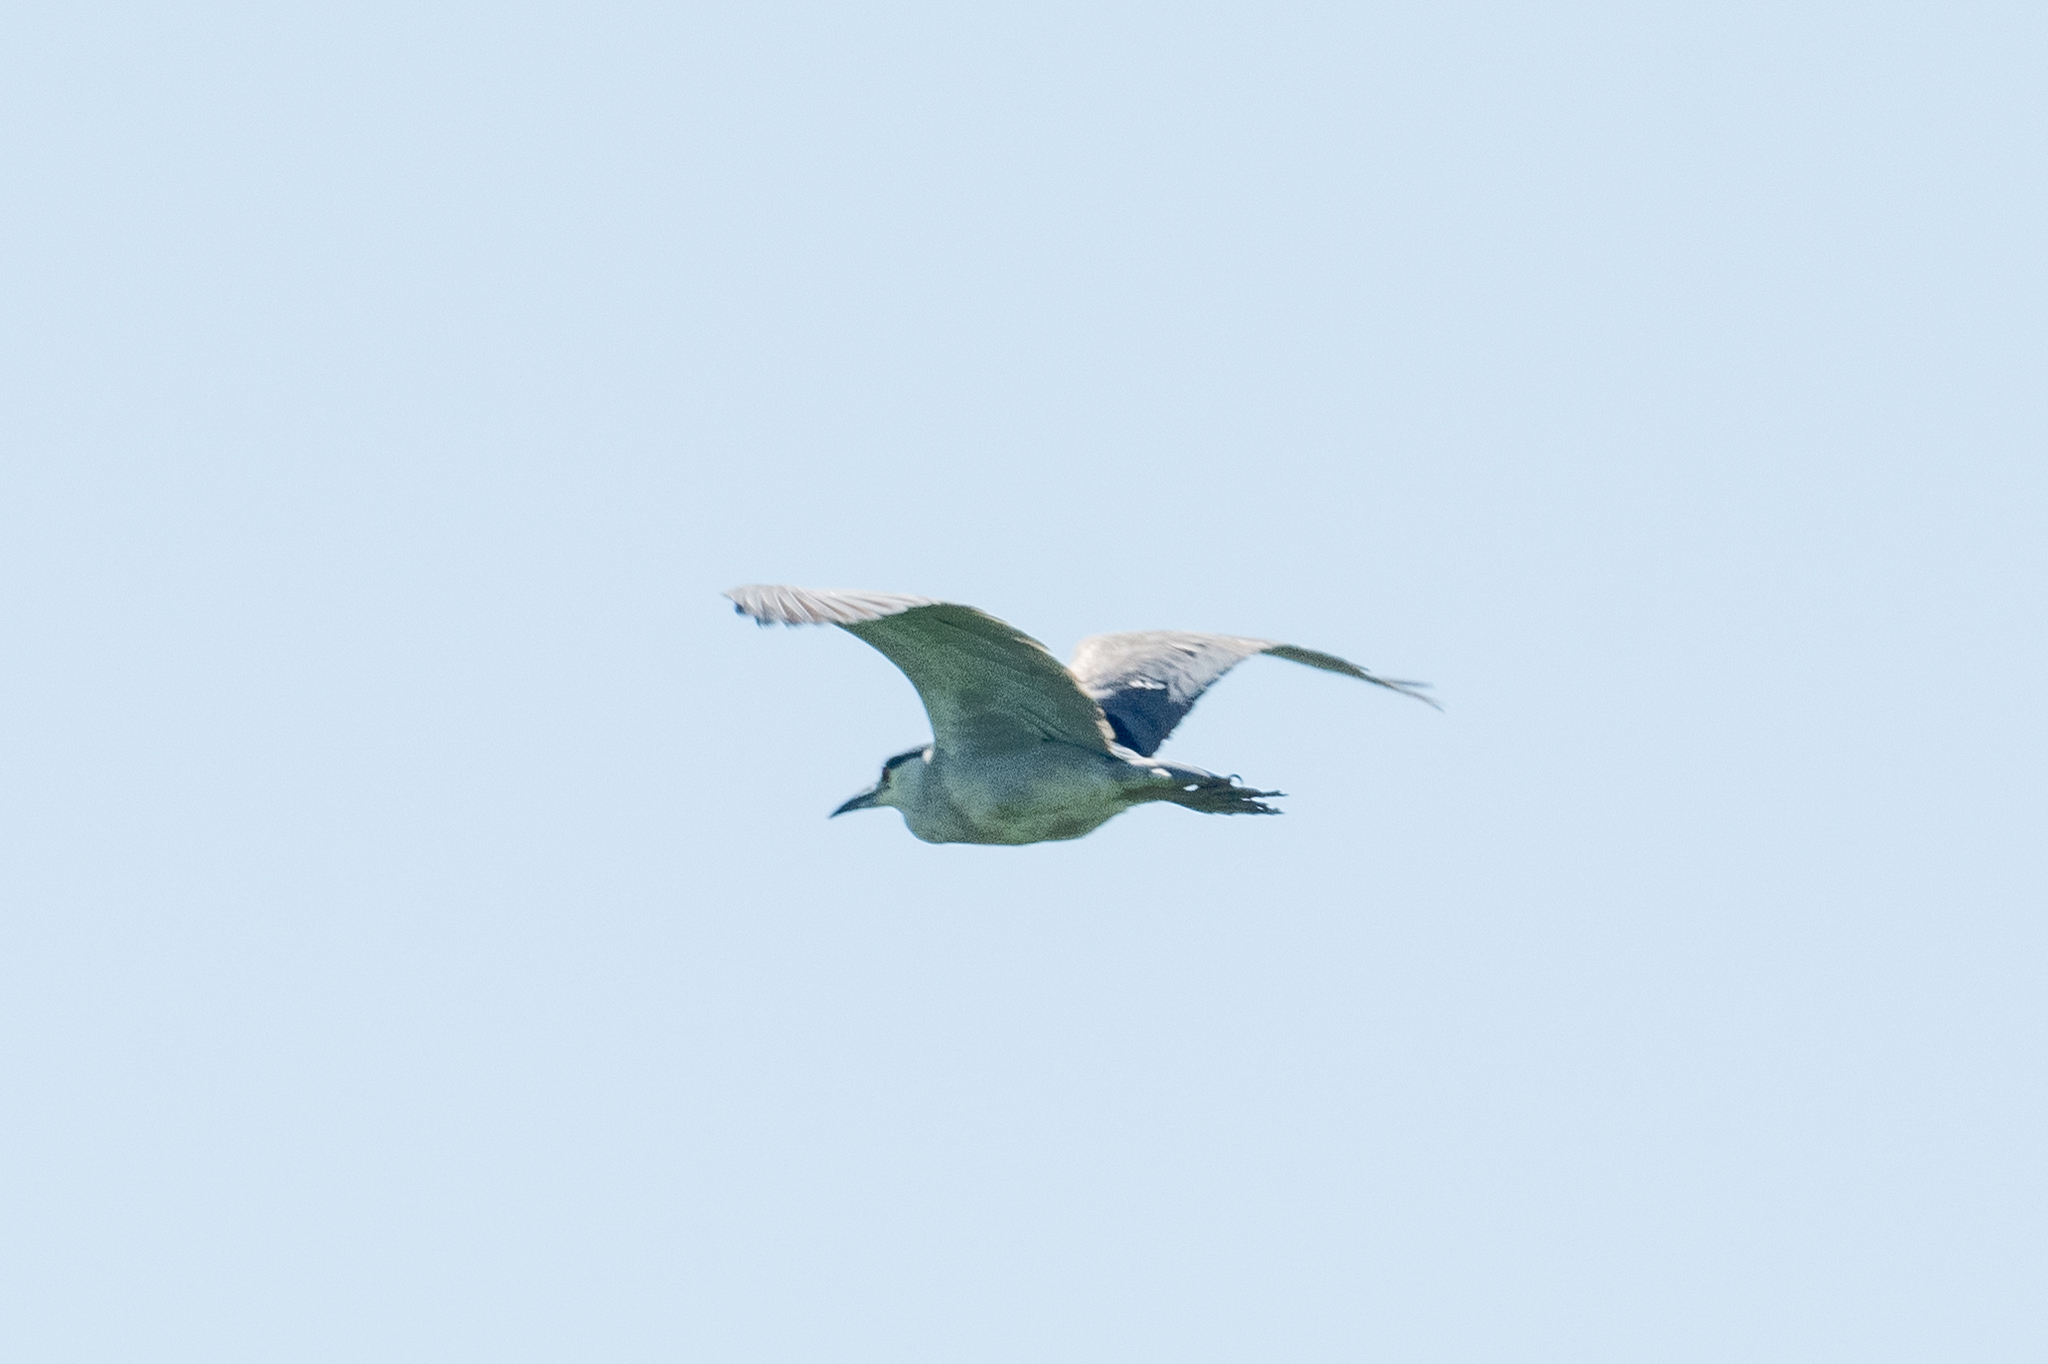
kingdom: Animalia
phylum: Chordata
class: Aves
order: Pelecaniformes
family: Ardeidae
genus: Nycticorax
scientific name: Nycticorax nycticorax
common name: Black-crowned night heron
